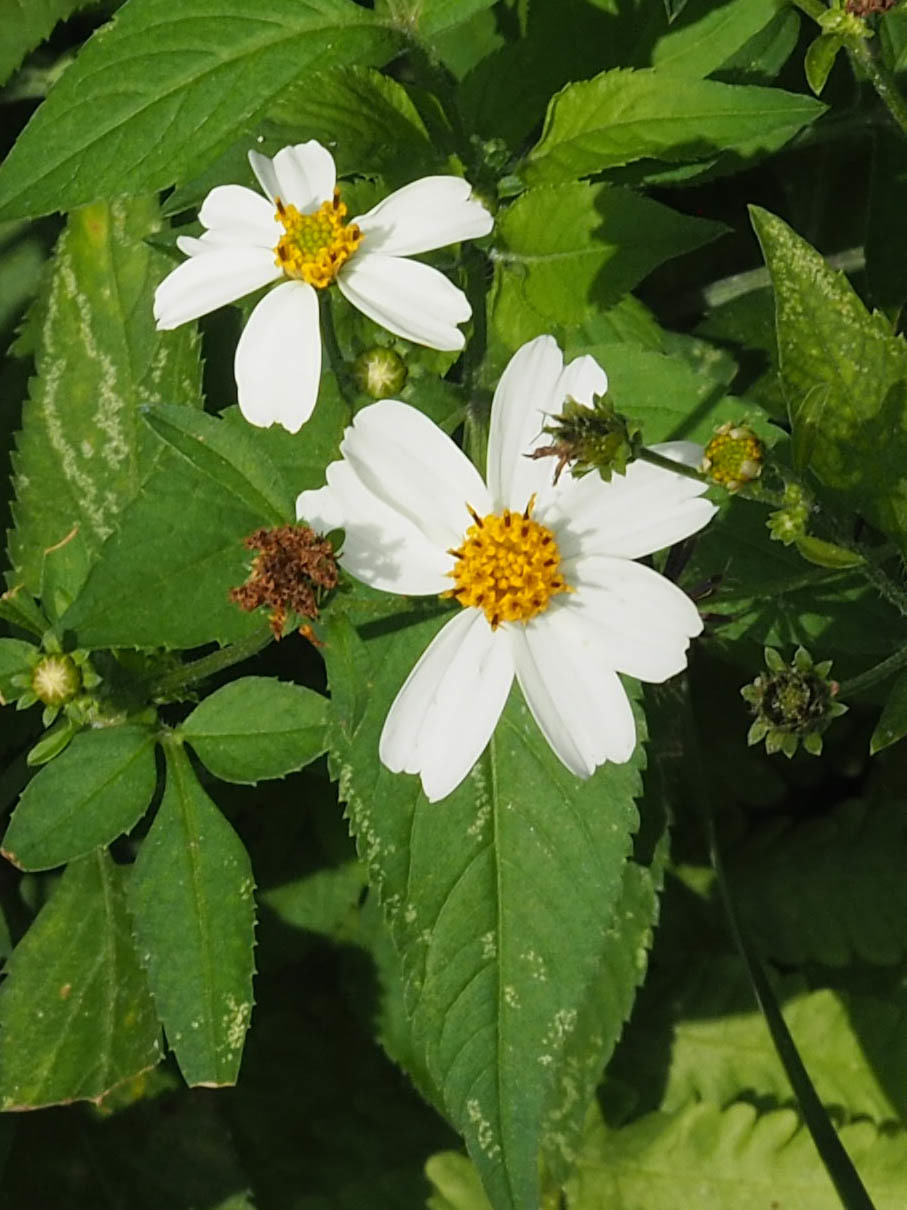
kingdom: Plantae
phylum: Tracheophyta
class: Magnoliopsida
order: Asterales
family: Asteraceae
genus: Bidens
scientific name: Bidens alba
